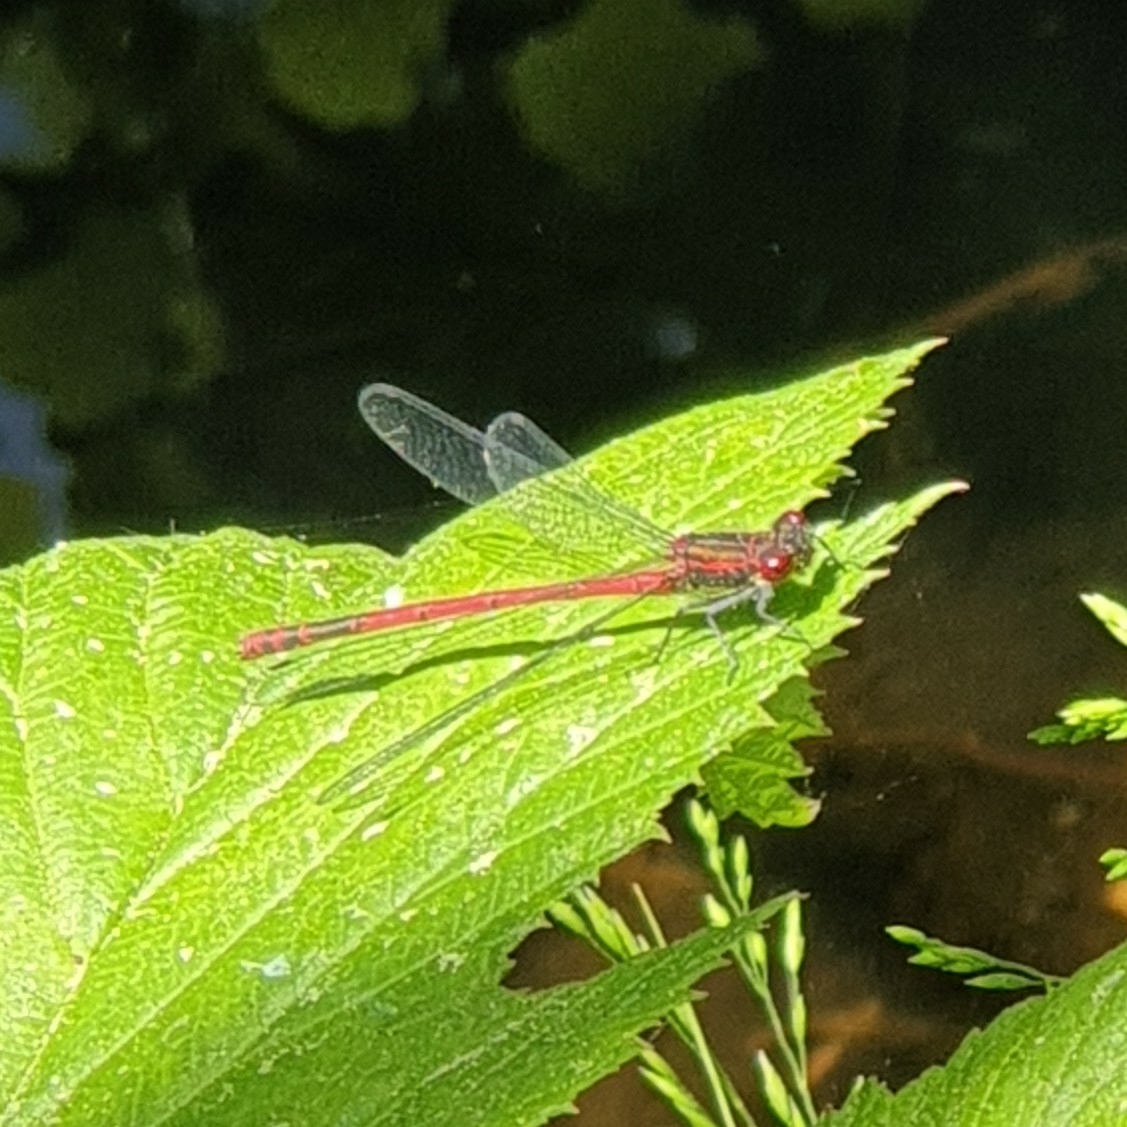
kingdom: Animalia
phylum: Arthropoda
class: Insecta
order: Odonata
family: Coenagrionidae
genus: Pyrrhosoma
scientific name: Pyrrhosoma nymphula
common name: Large red damsel
